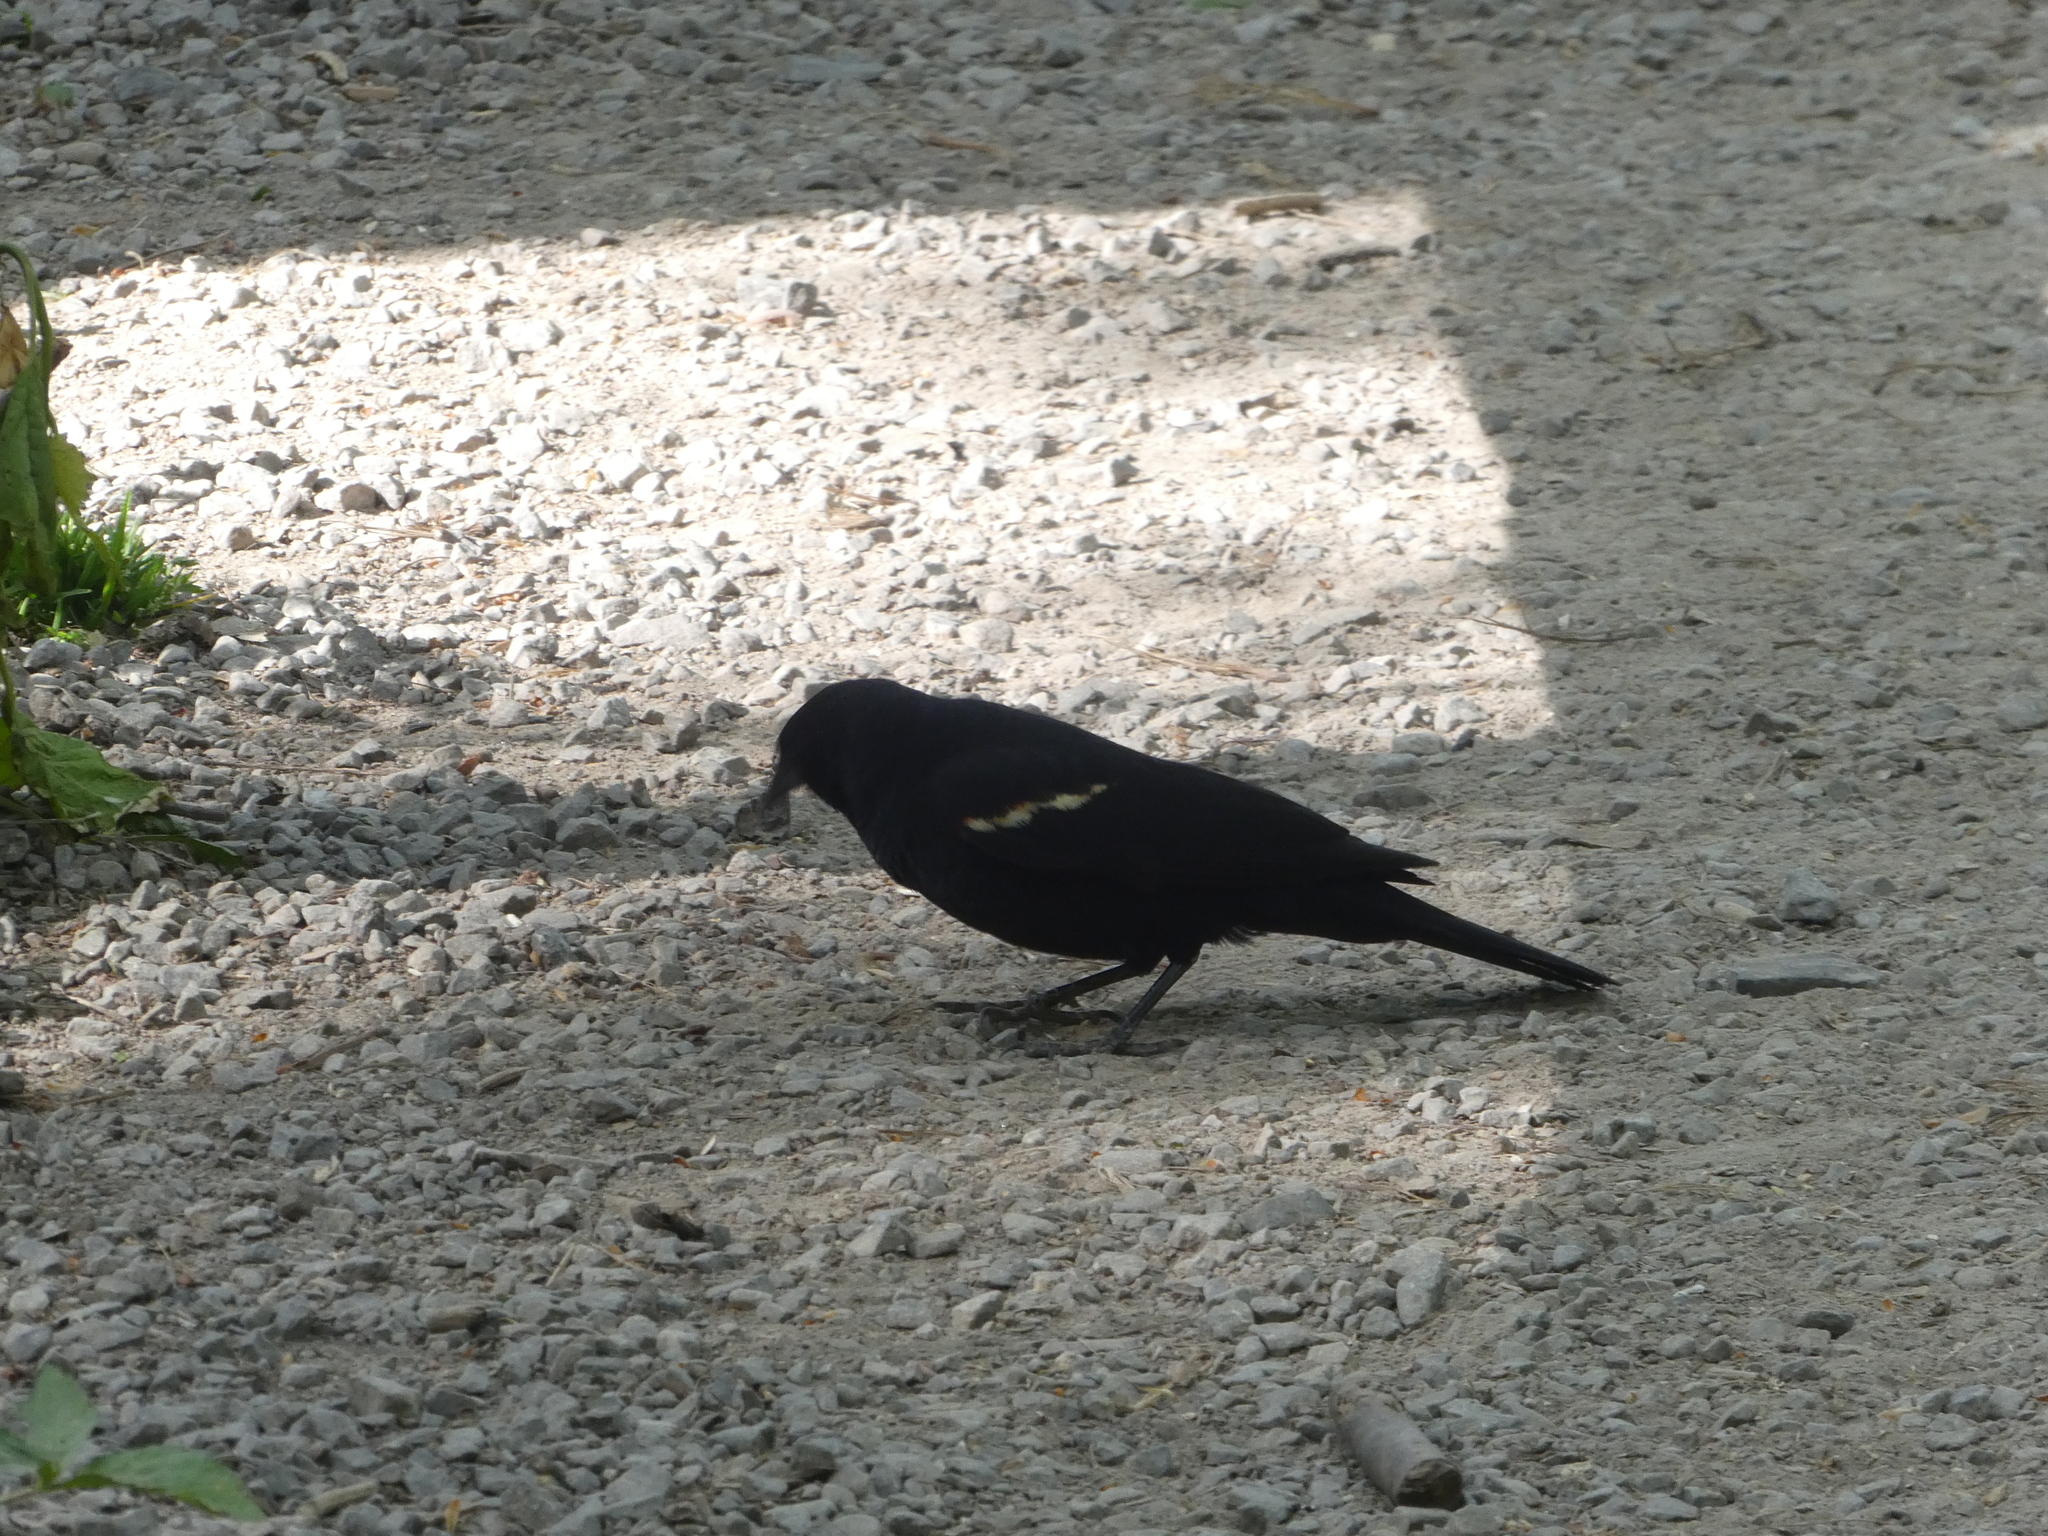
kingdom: Animalia
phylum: Chordata
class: Aves
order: Passeriformes
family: Icteridae
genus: Agelaius
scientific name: Agelaius phoeniceus
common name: Red-winged blackbird
